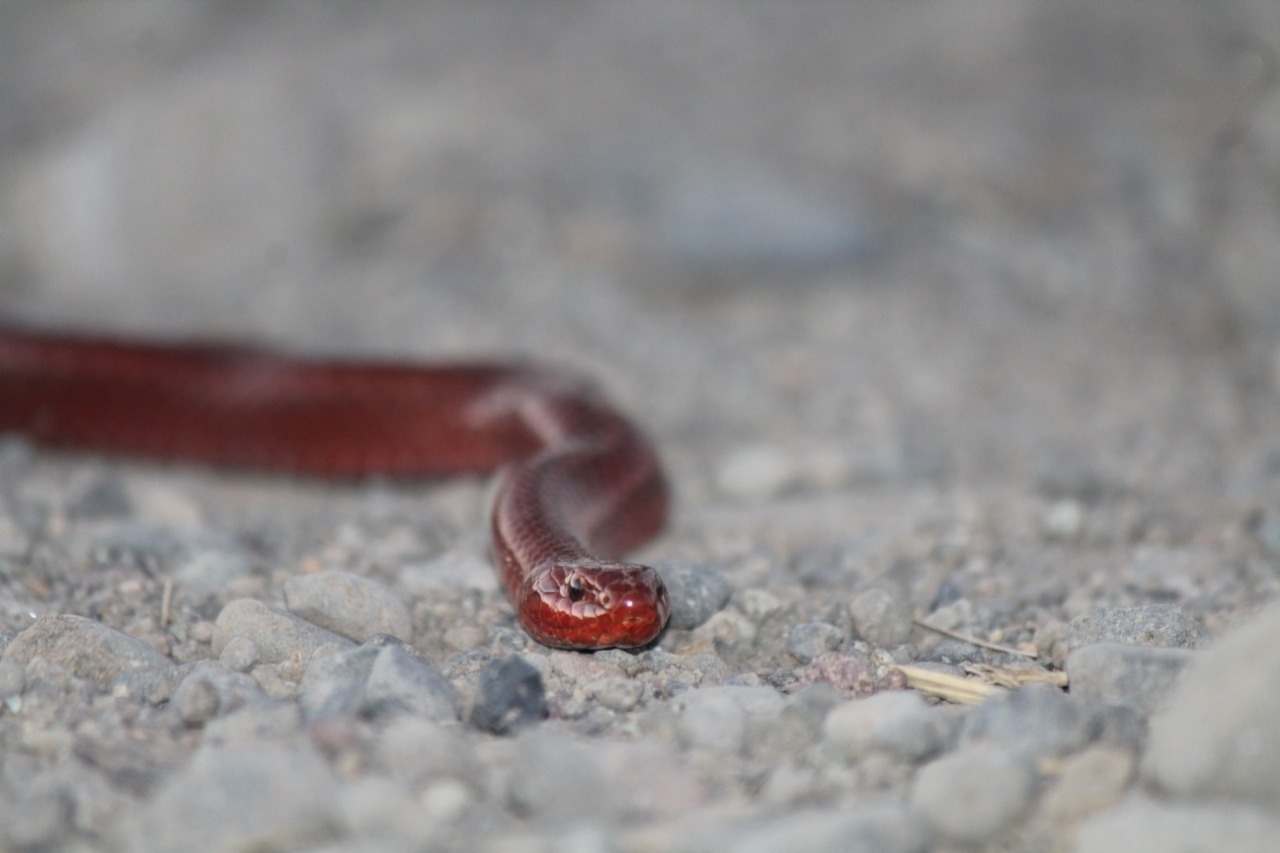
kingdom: Animalia
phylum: Chordata
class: Squamata
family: Colubridae
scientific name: Colubridae
